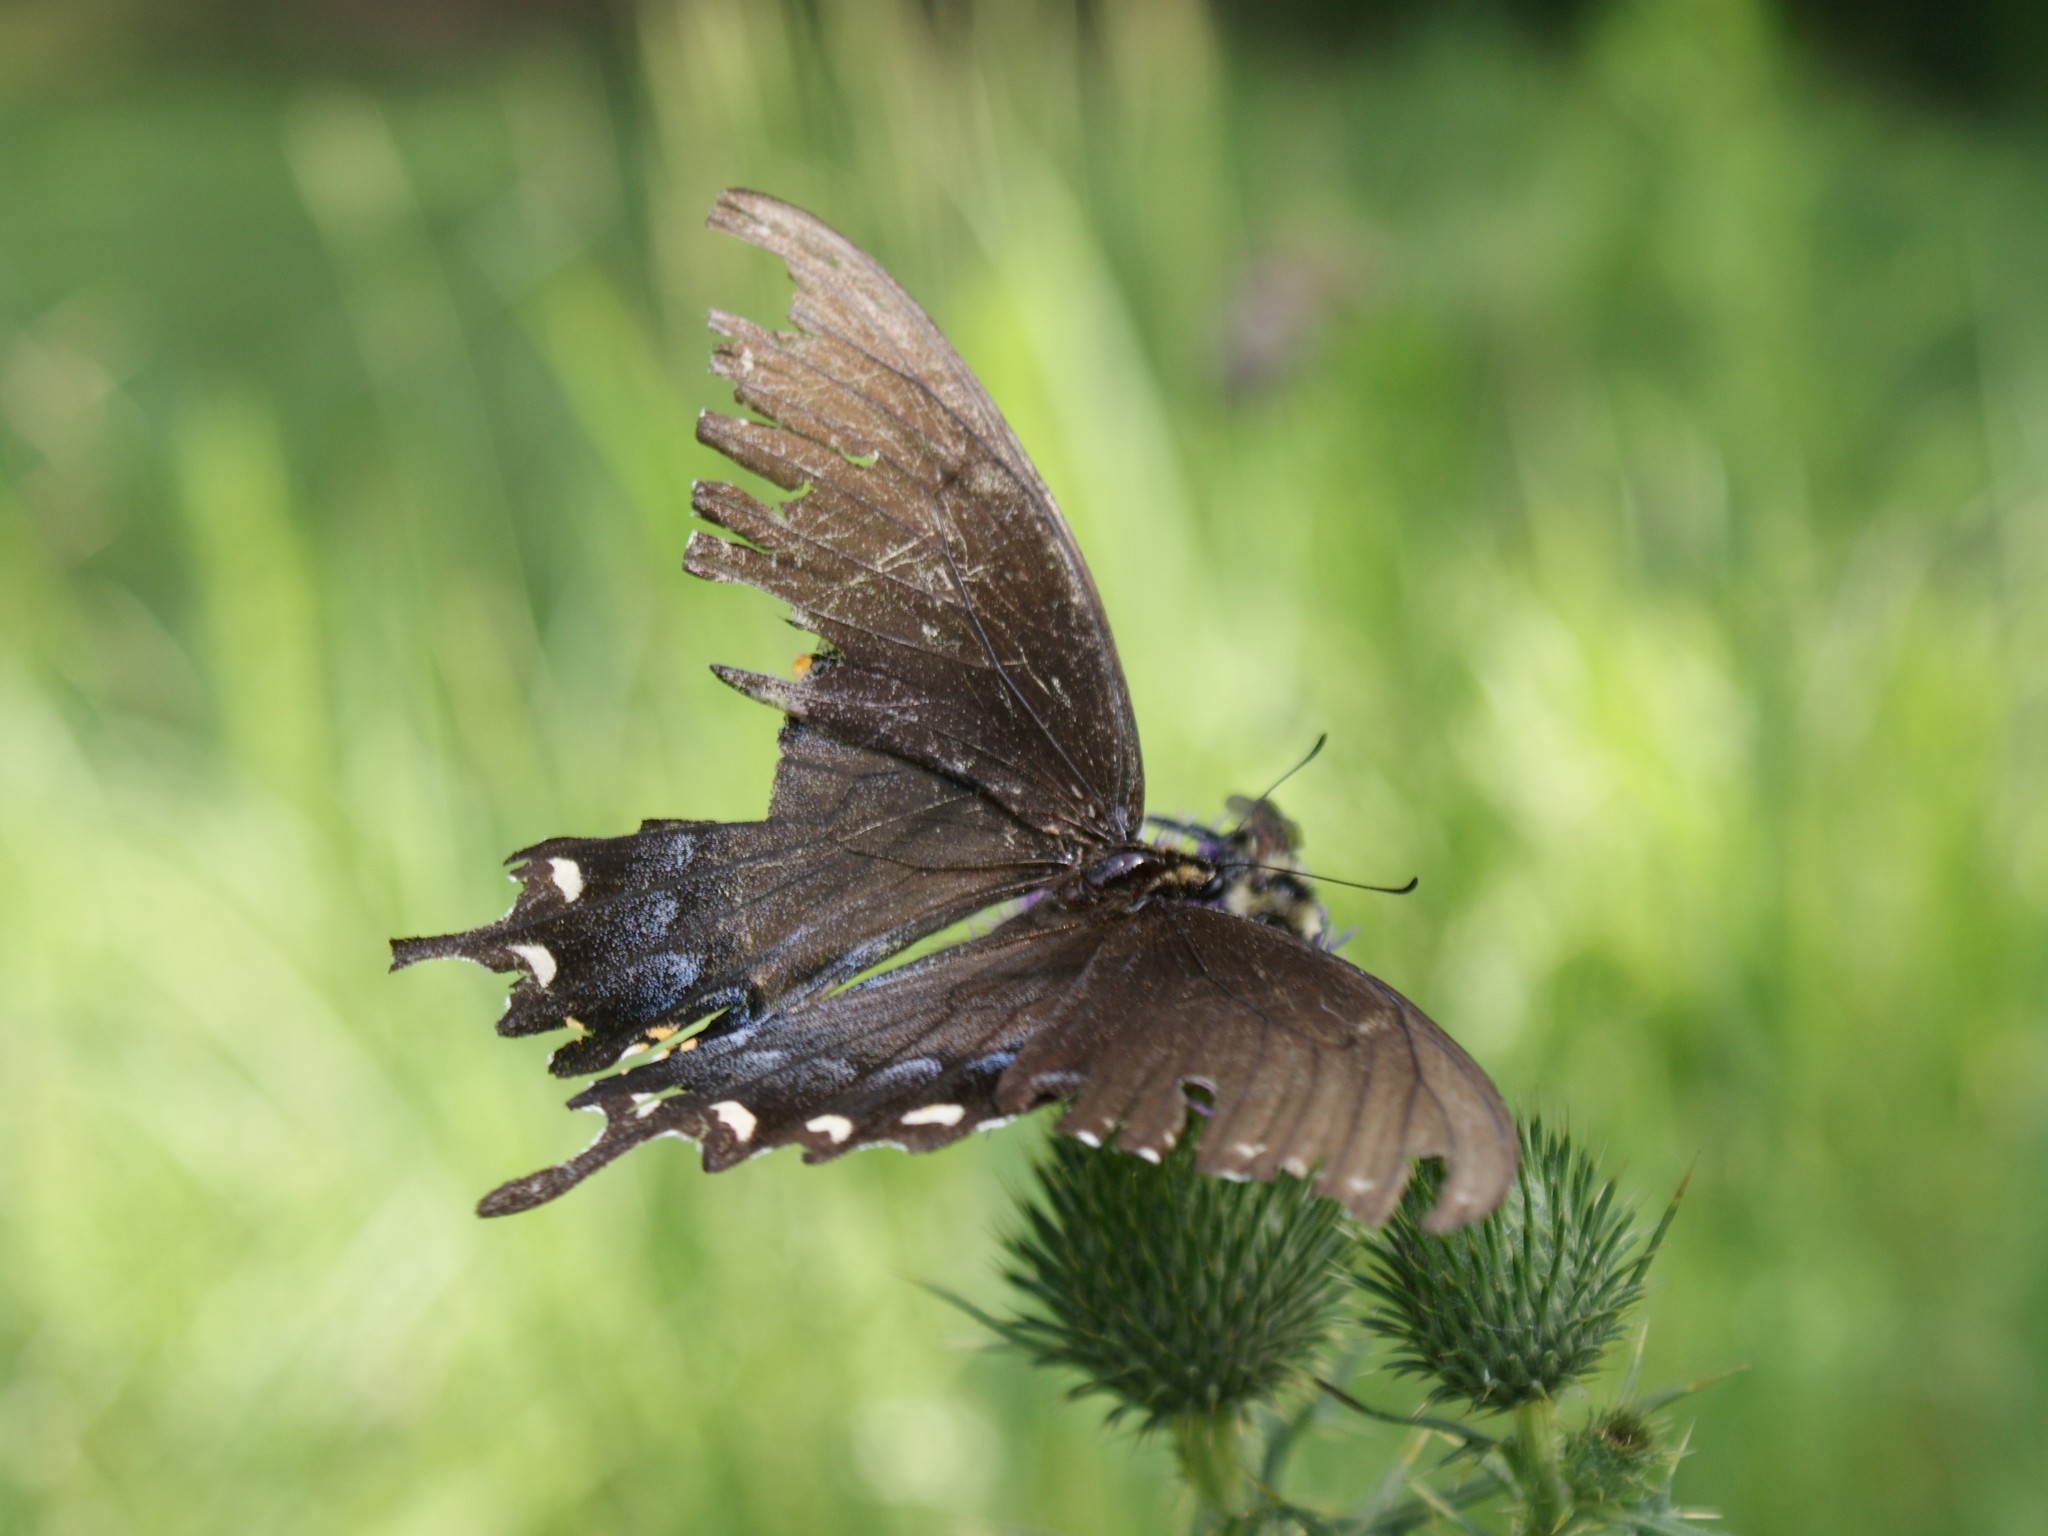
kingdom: Animalia
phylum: Arthropoda
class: Insecta
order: Lepidoptera
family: Papilionidae
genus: Papilio
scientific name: Papilio glaucus
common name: Tiger swallowtail
